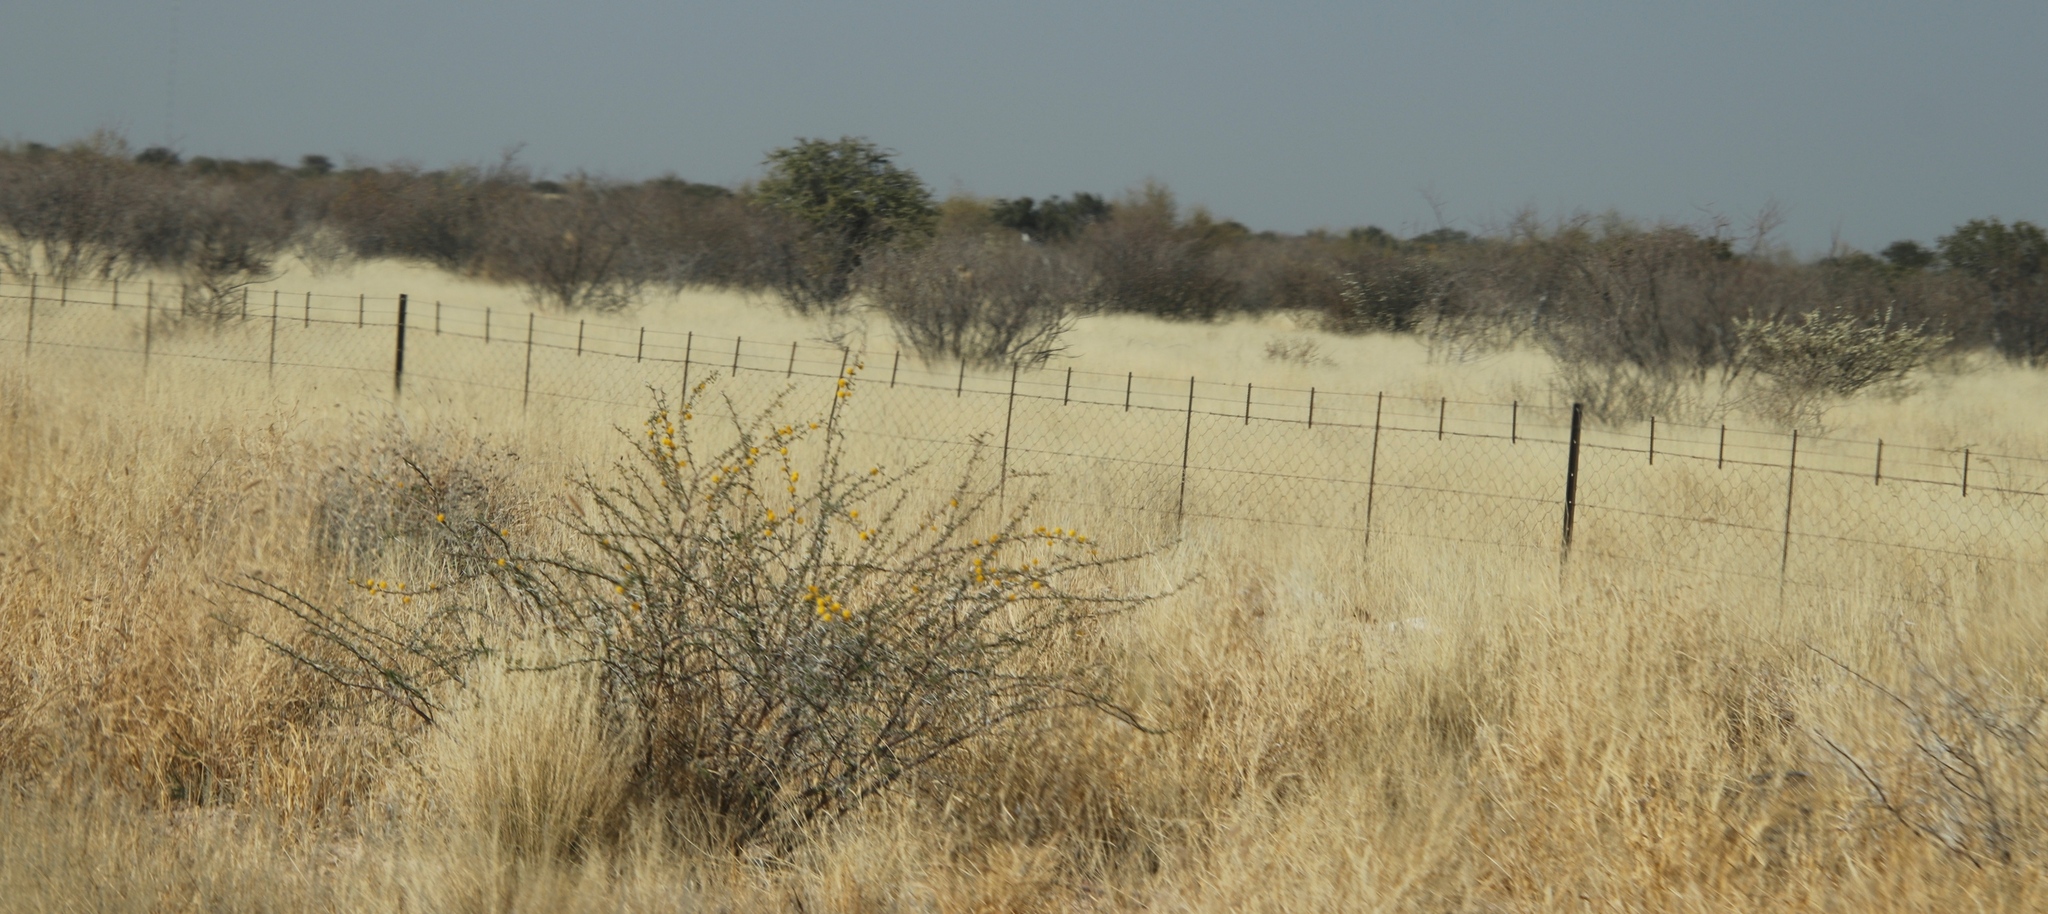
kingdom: Plantae
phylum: Tracheophyta
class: Magnoliopsida
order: Fabales
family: Fabaceae
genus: Vachellia
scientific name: Vachellia nebrownii
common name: Water acacia
